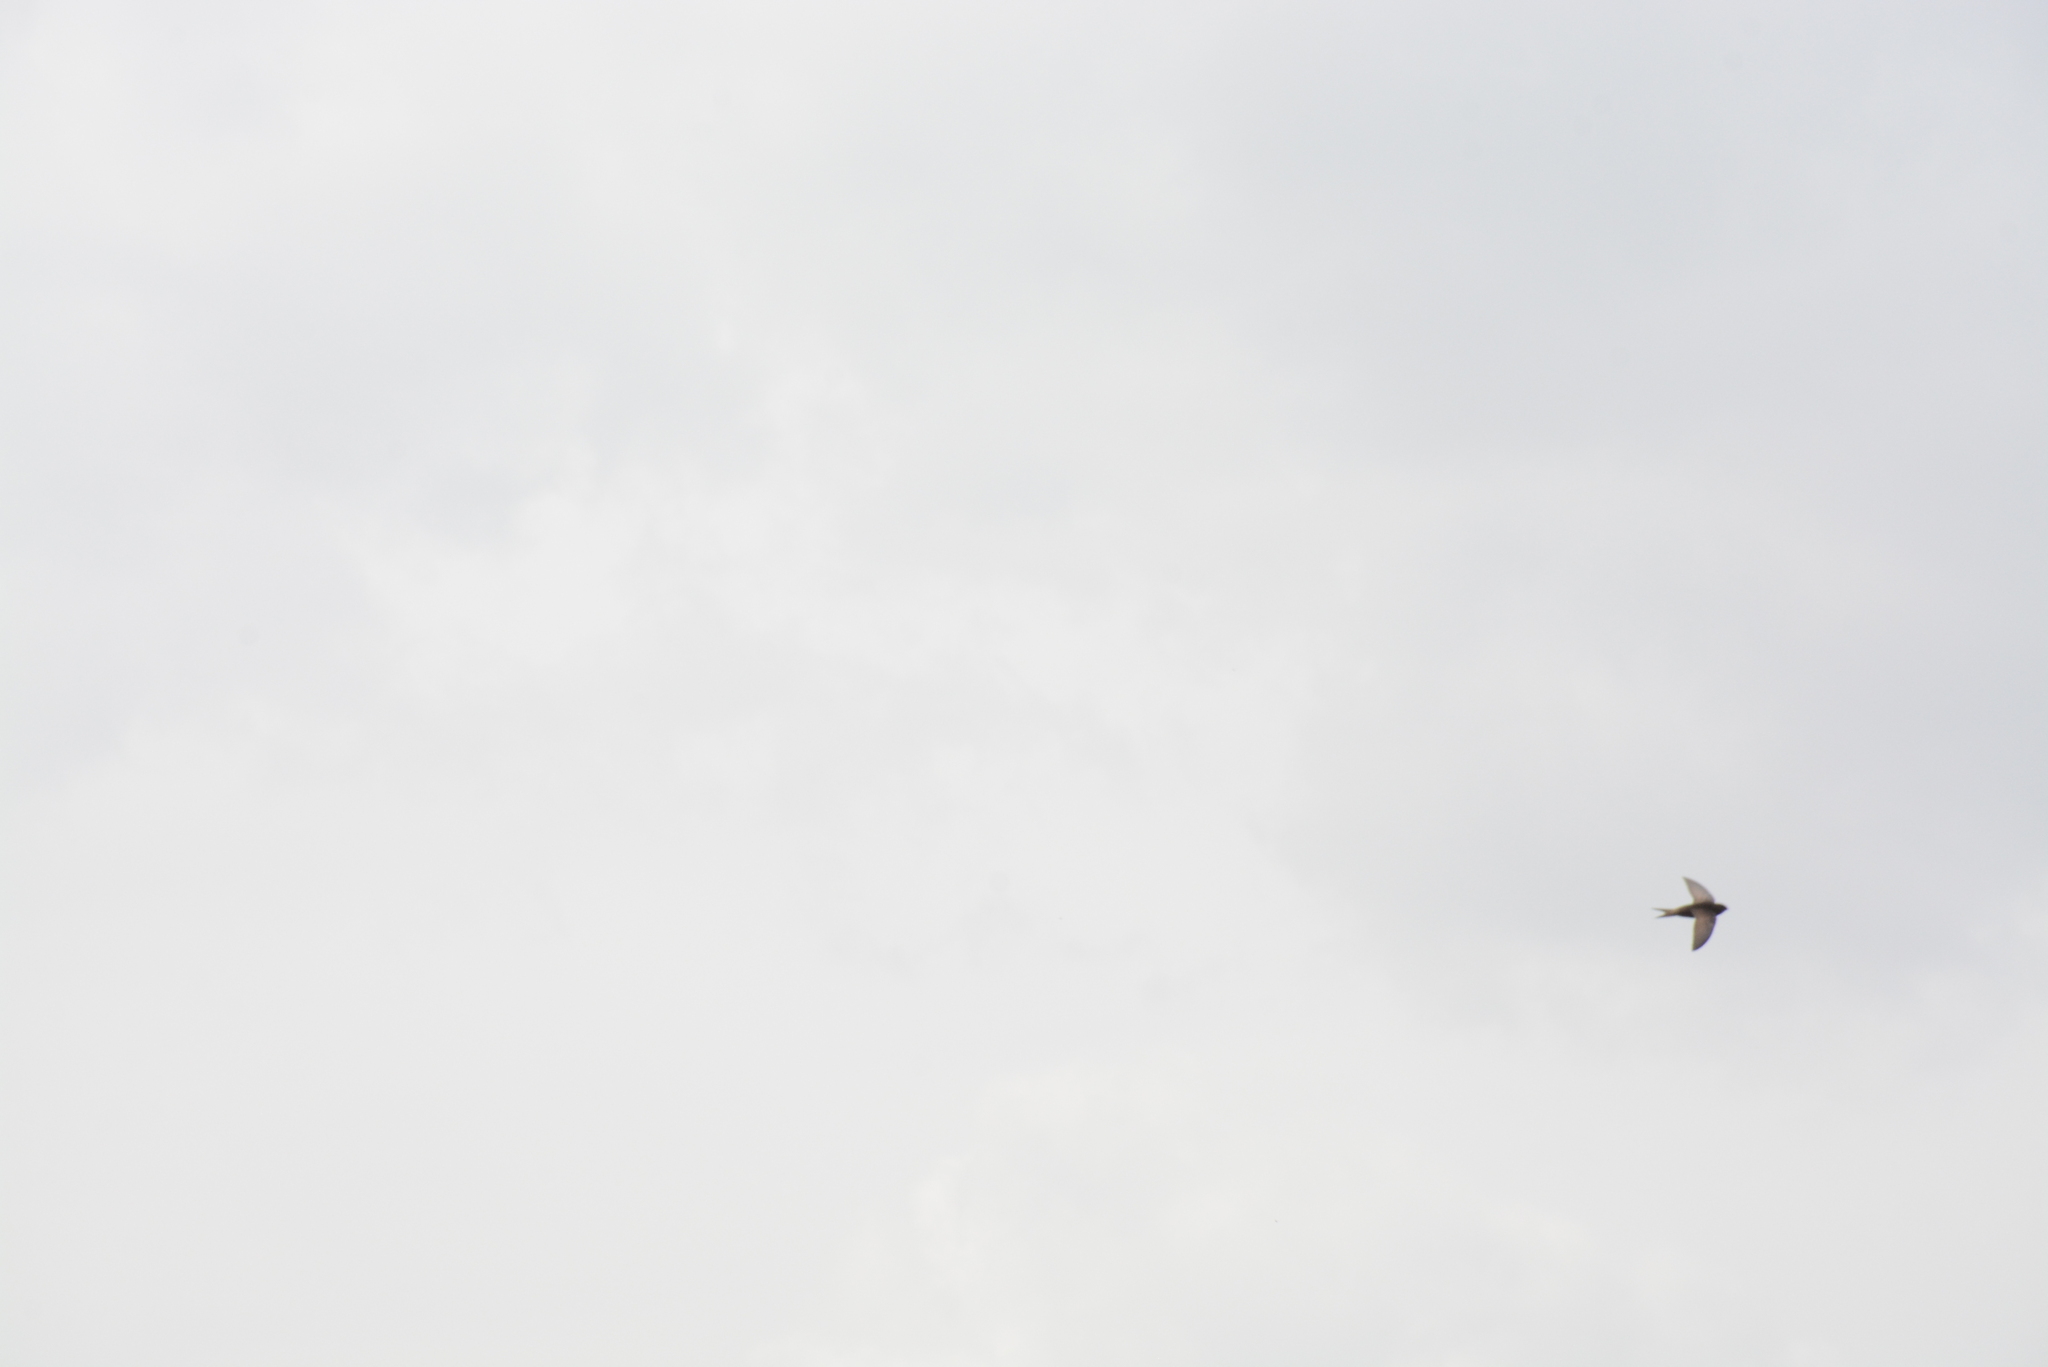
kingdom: Animalia
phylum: Chordata
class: Aves
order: Apodiformes
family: Apodidae
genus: Apus
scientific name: Apus apus
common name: Common swift
